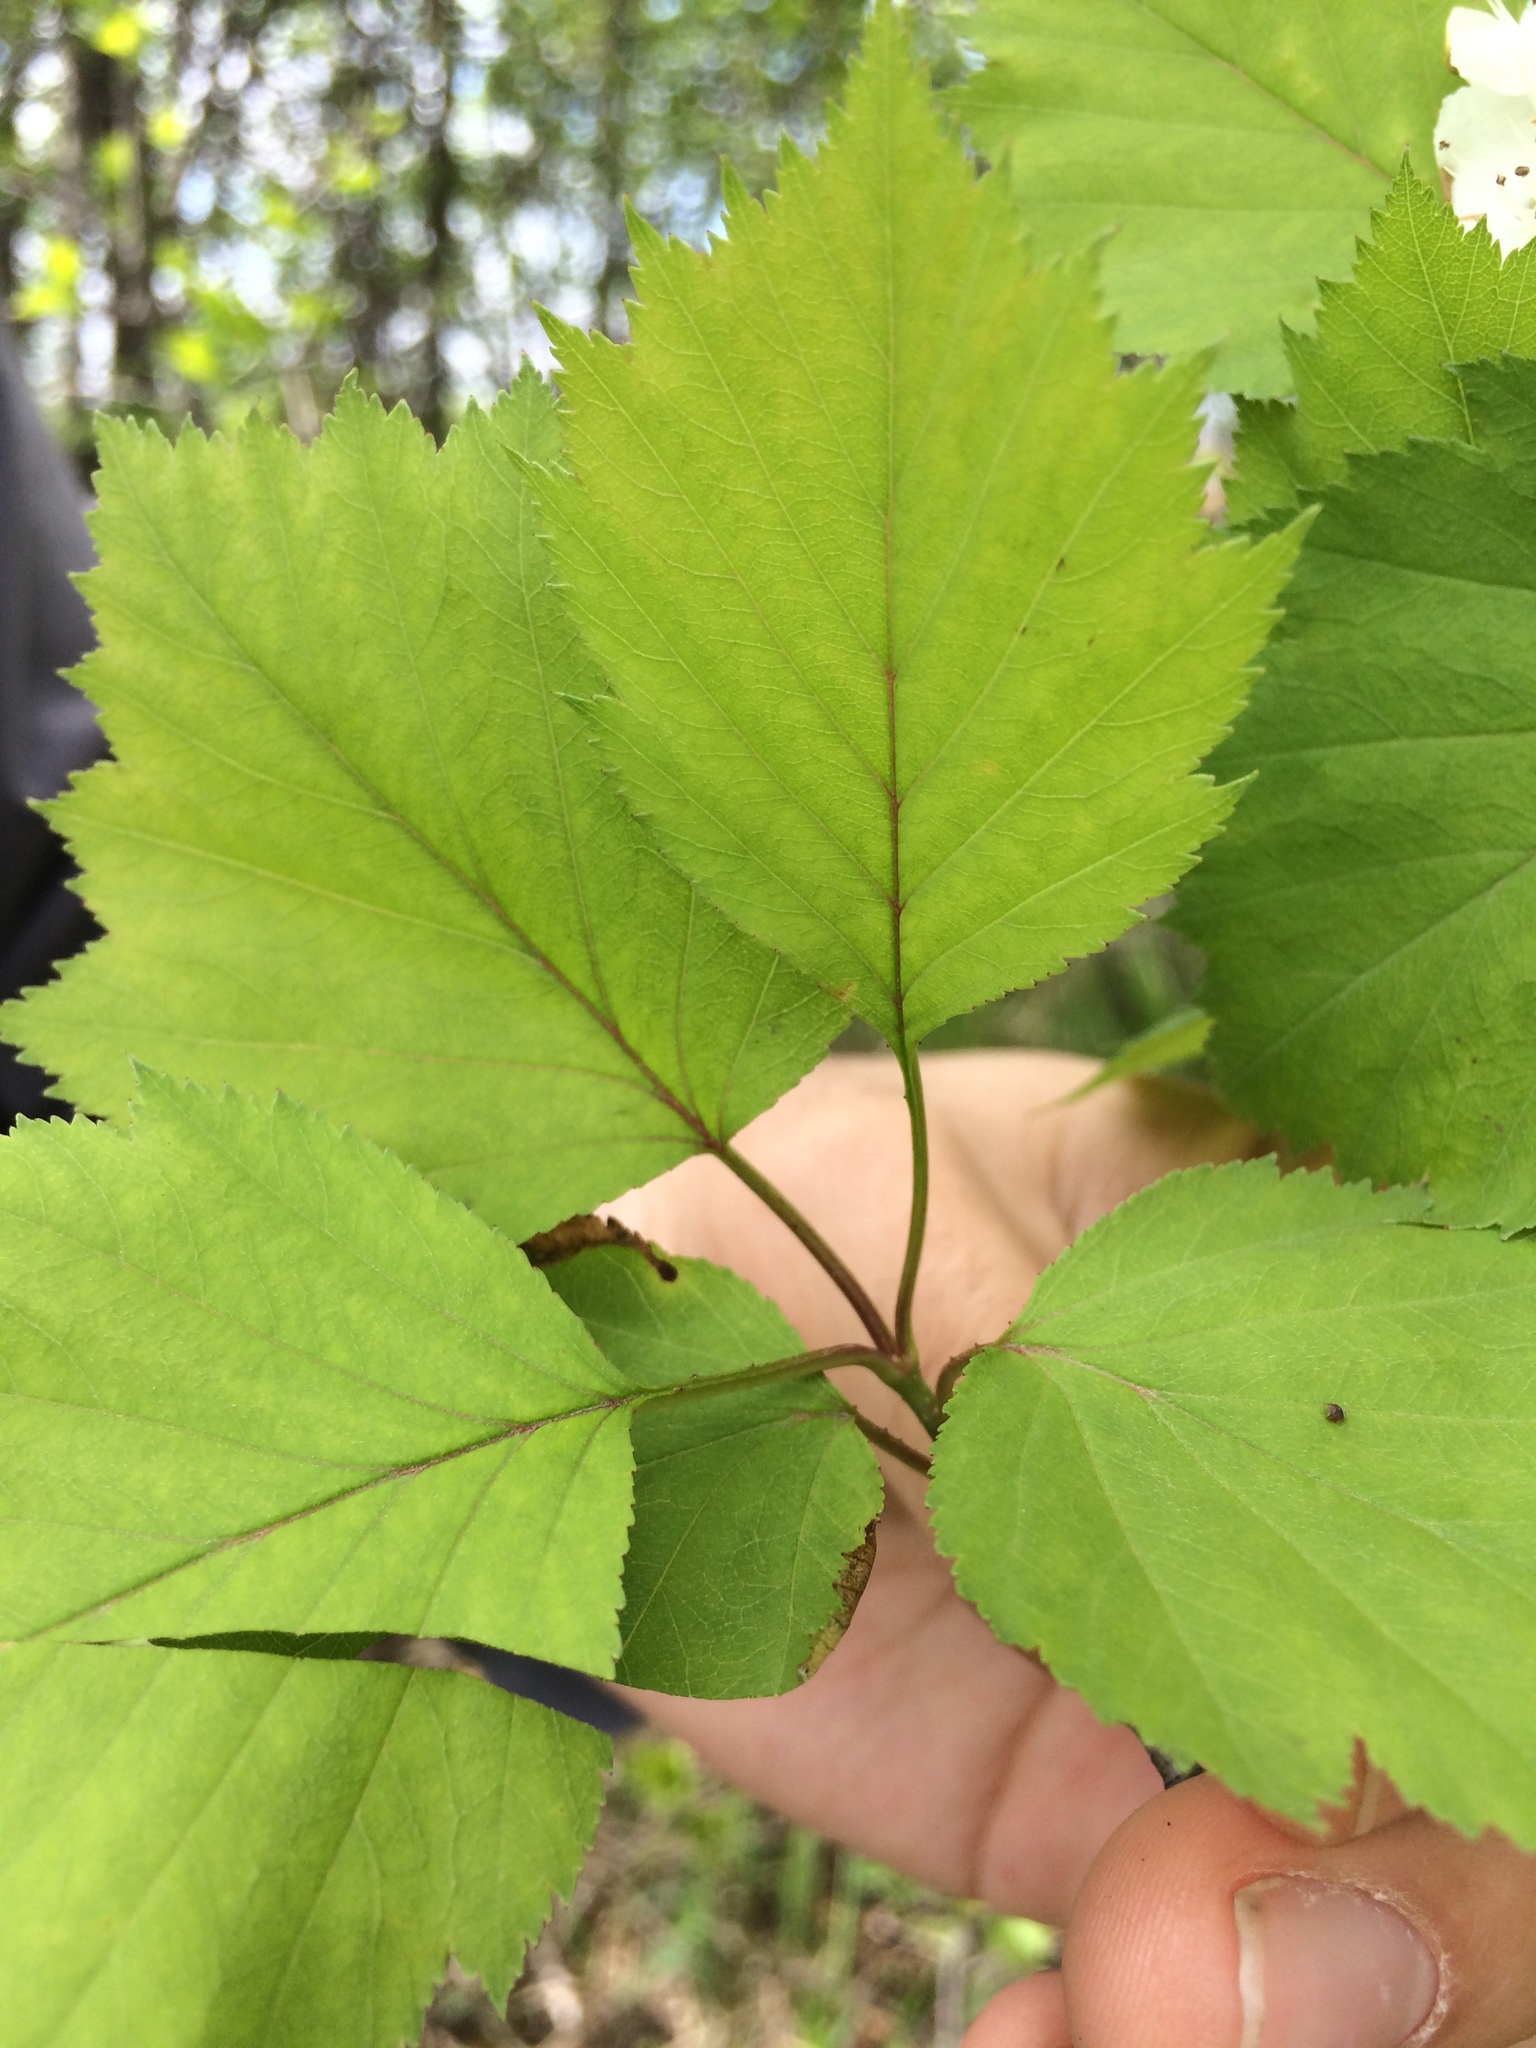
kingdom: Plantae
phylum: Tracheophyta
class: Magnoliopsida
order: Rosales
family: Rosaceae
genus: Crataegus
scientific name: Crataegus schuettei
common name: Schuette's hawthorn
